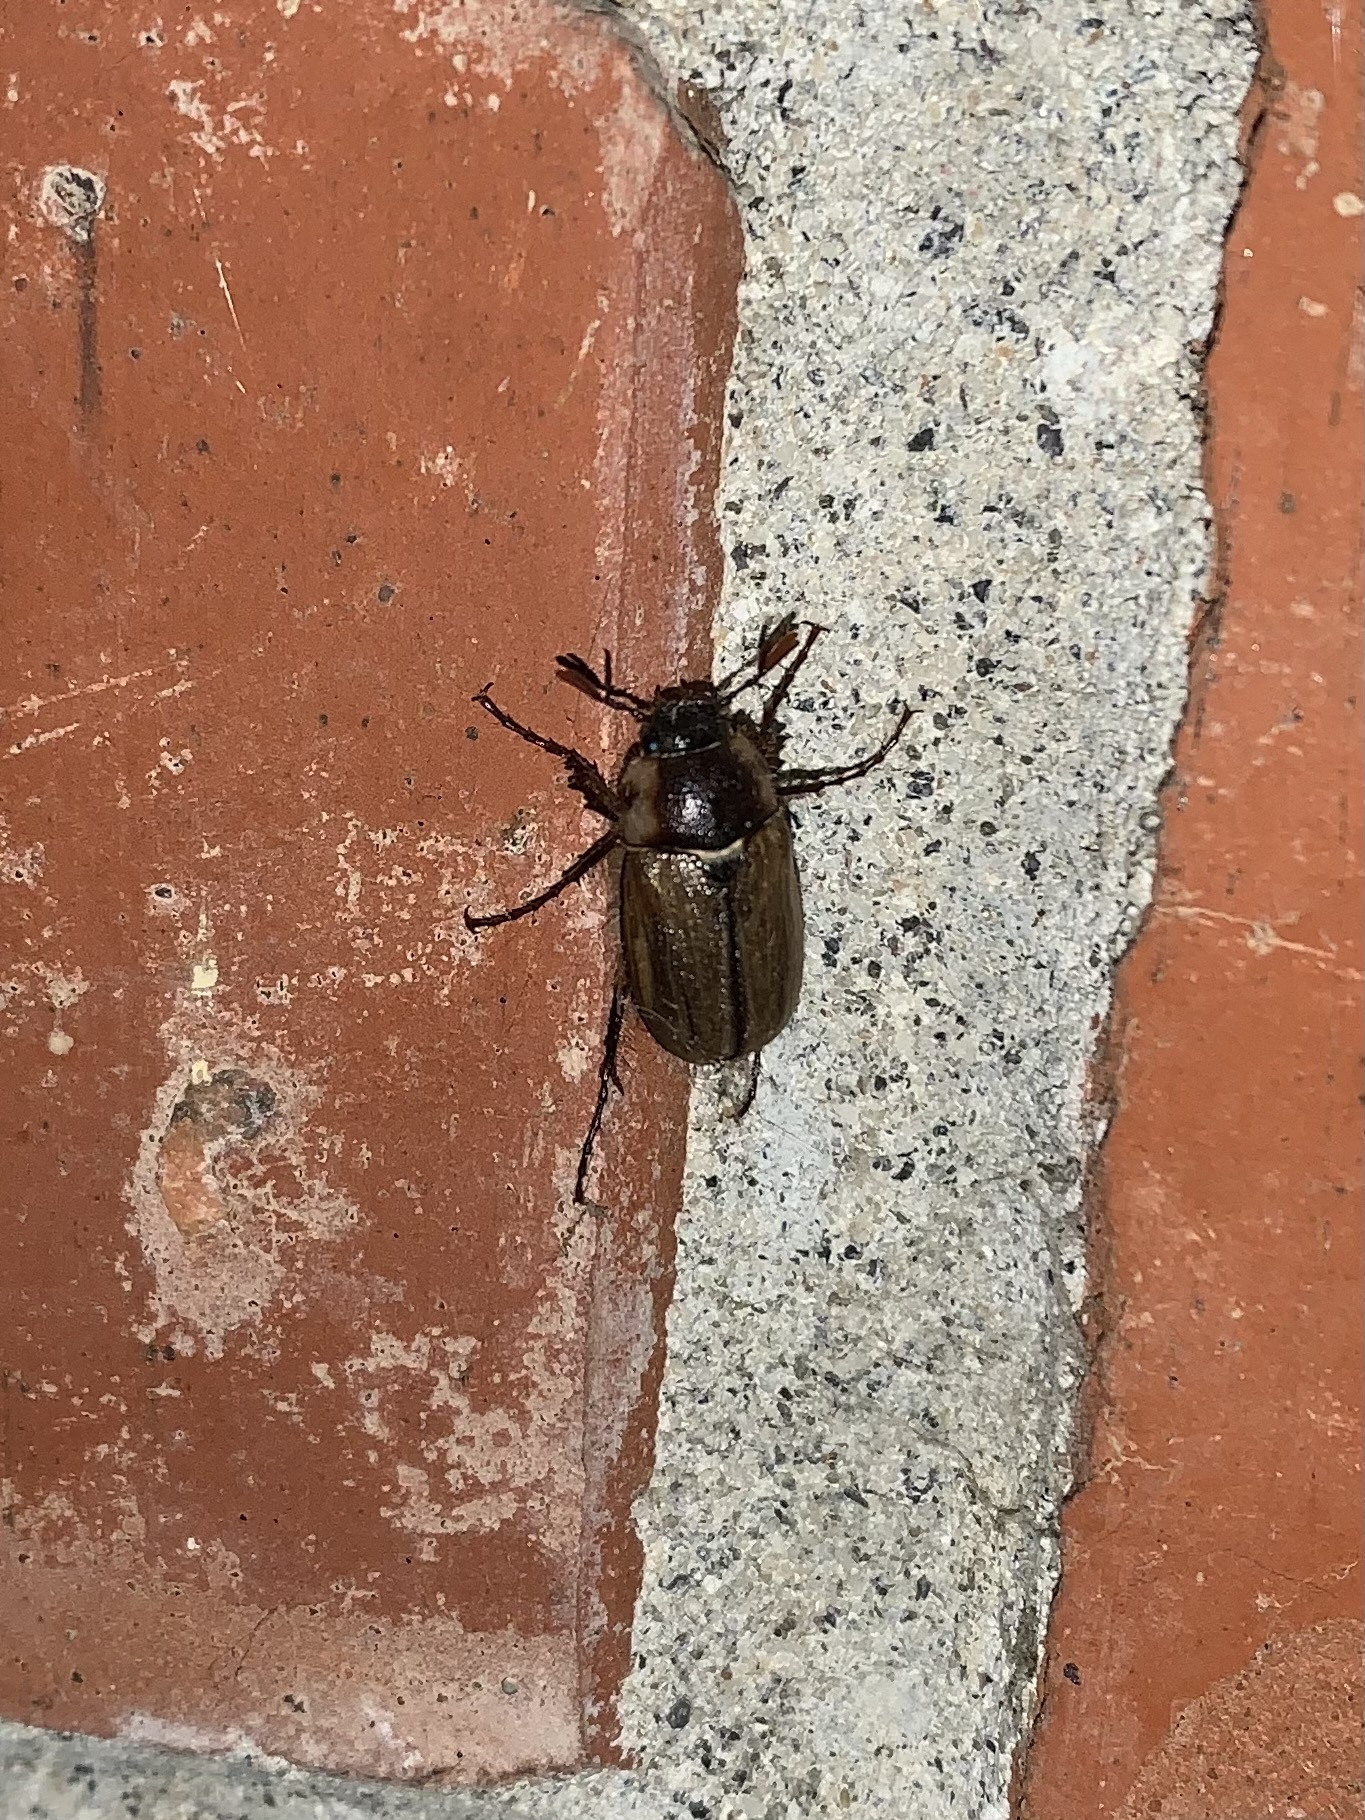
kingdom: Animalia
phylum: Arthropoda
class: Insecta
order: Coleoptera
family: Scarabaeidae
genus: Monotropus
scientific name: Monotropus fausti
